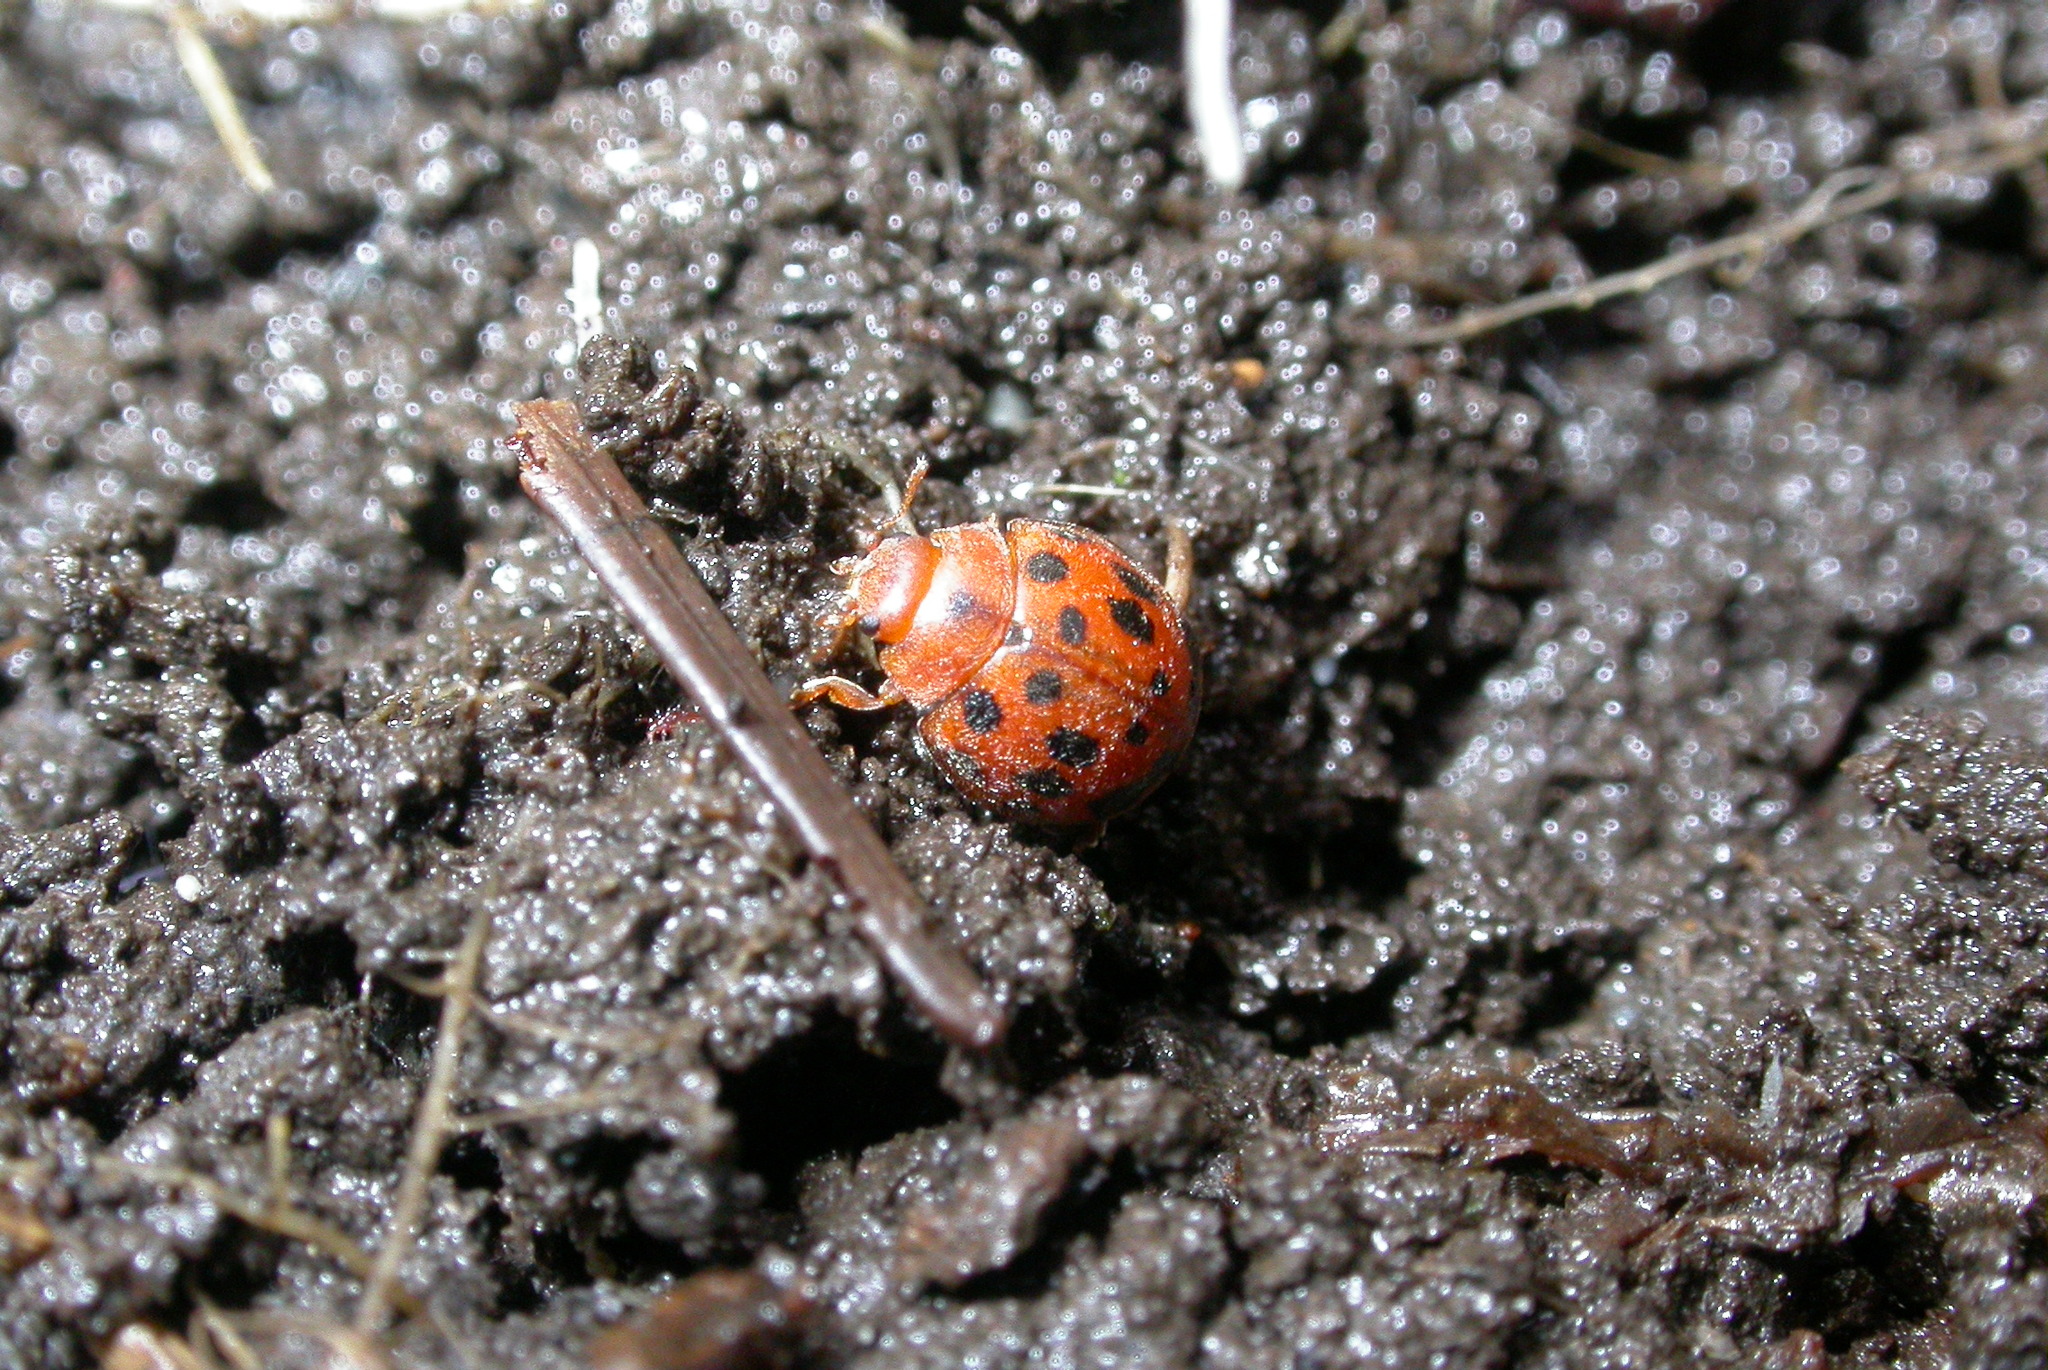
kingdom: Animalia
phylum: Arthropoda
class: Insecta
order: Coleoptera
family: Coccinellidae
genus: Subcoccinella
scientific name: Subcoccinella vigintiquatuorpunctata
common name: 24-spot ladybird
